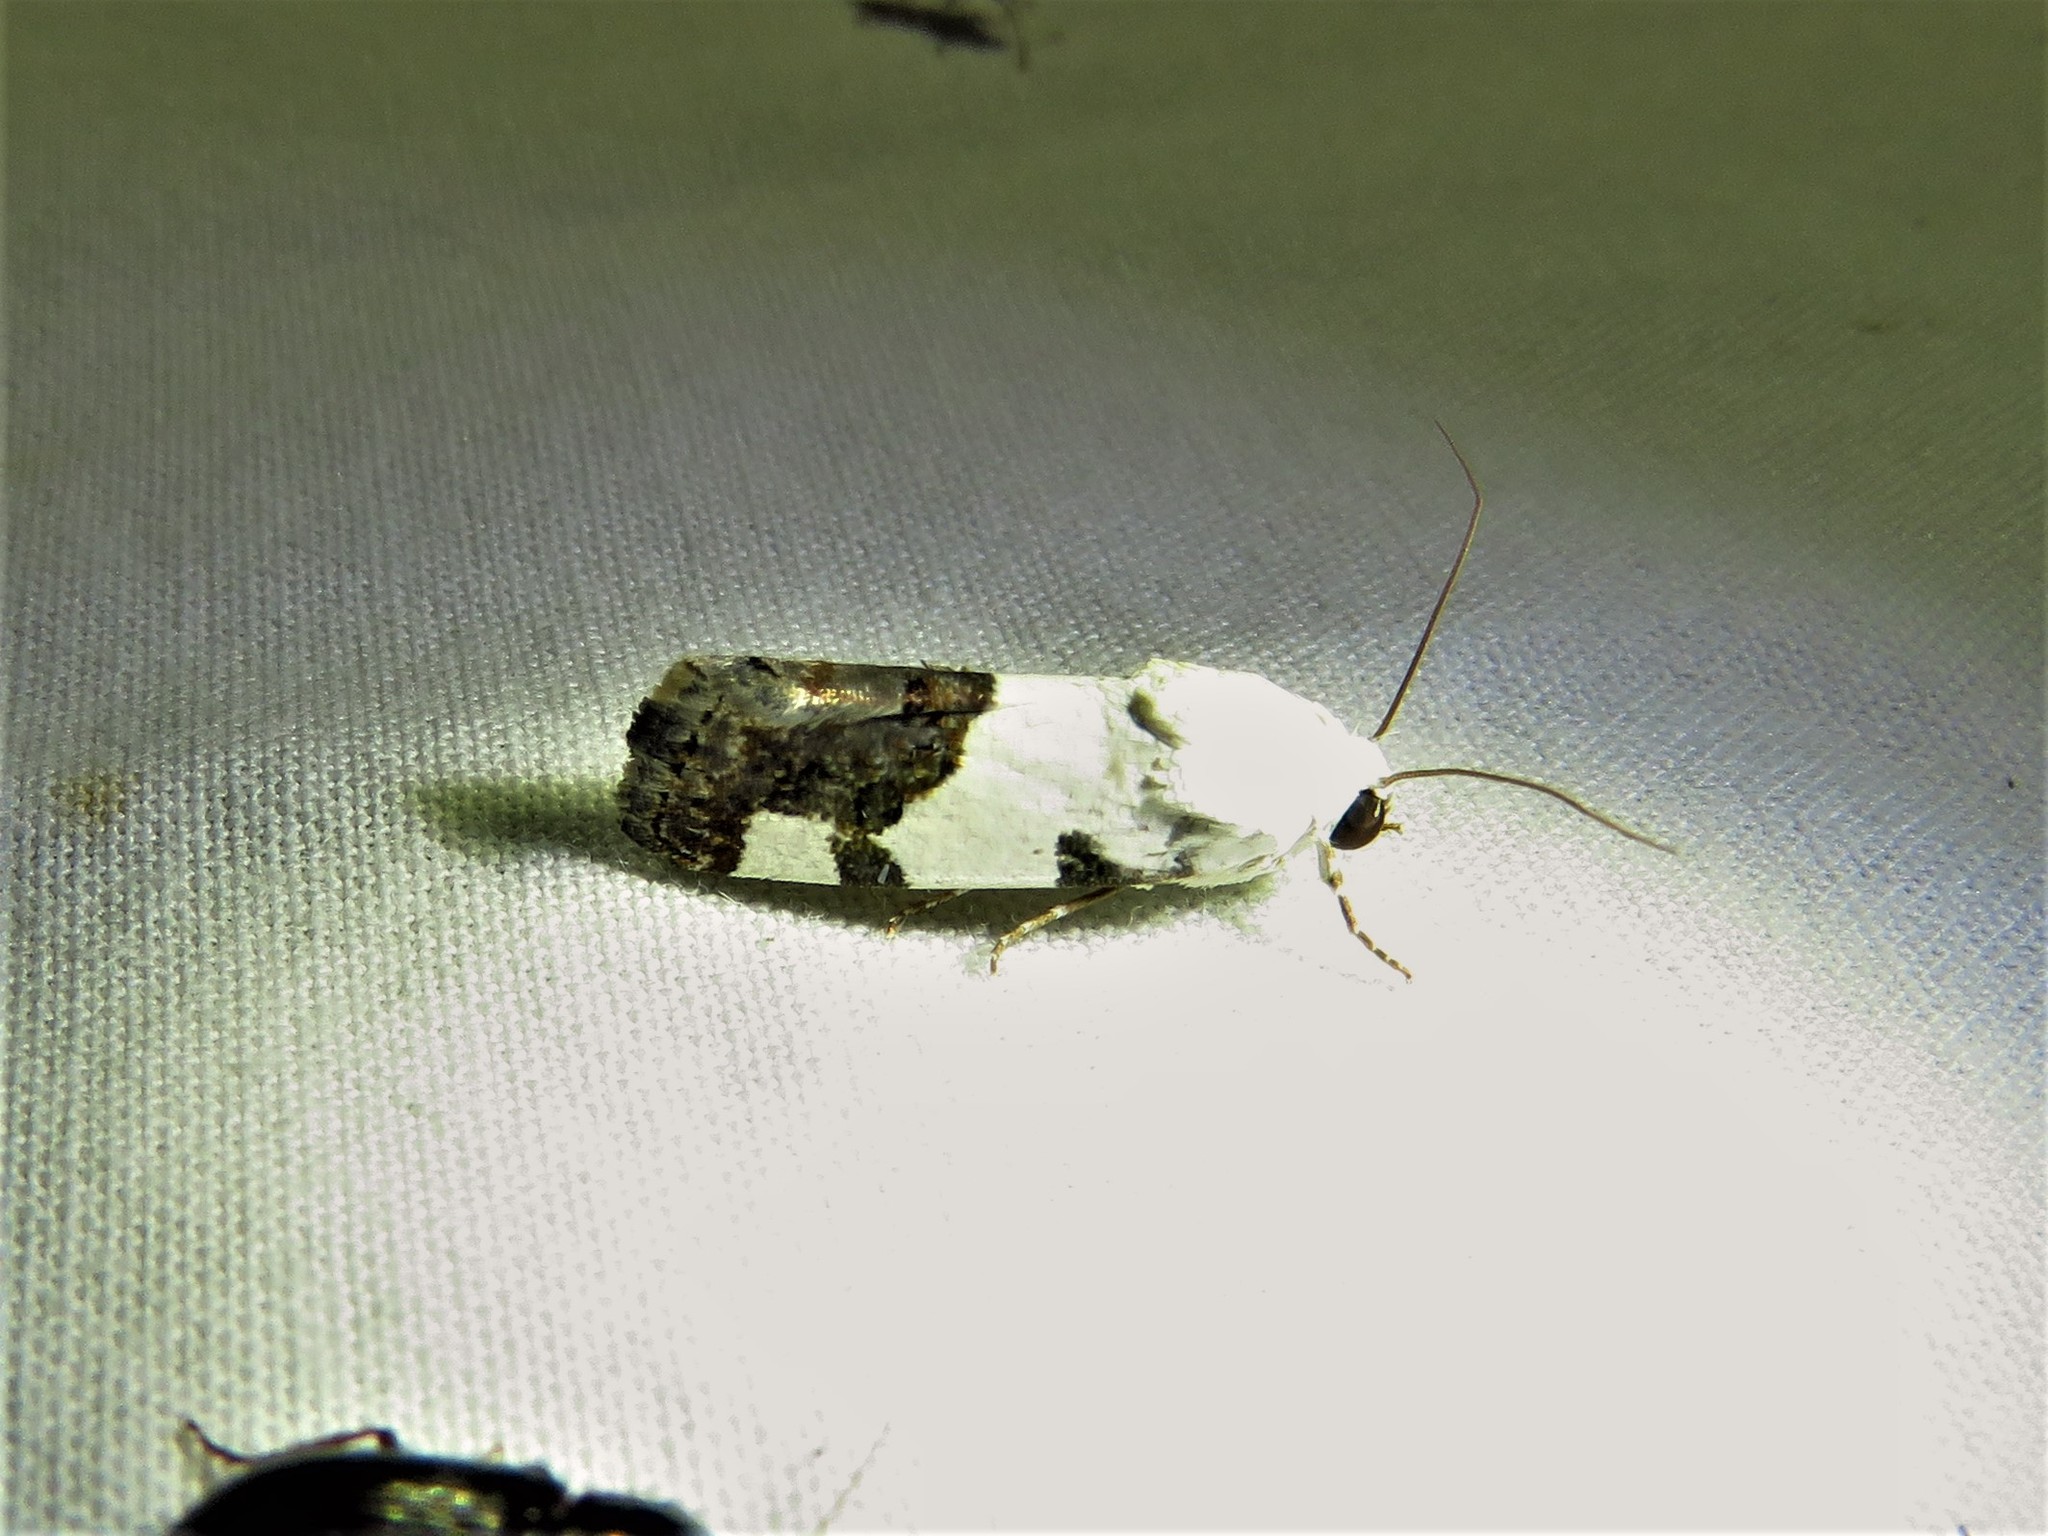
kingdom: Animalia
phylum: Arthropoda
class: Insecta
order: Lepidoptera
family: Noctuidae
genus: Acontia
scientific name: Acontia quadriplaga
